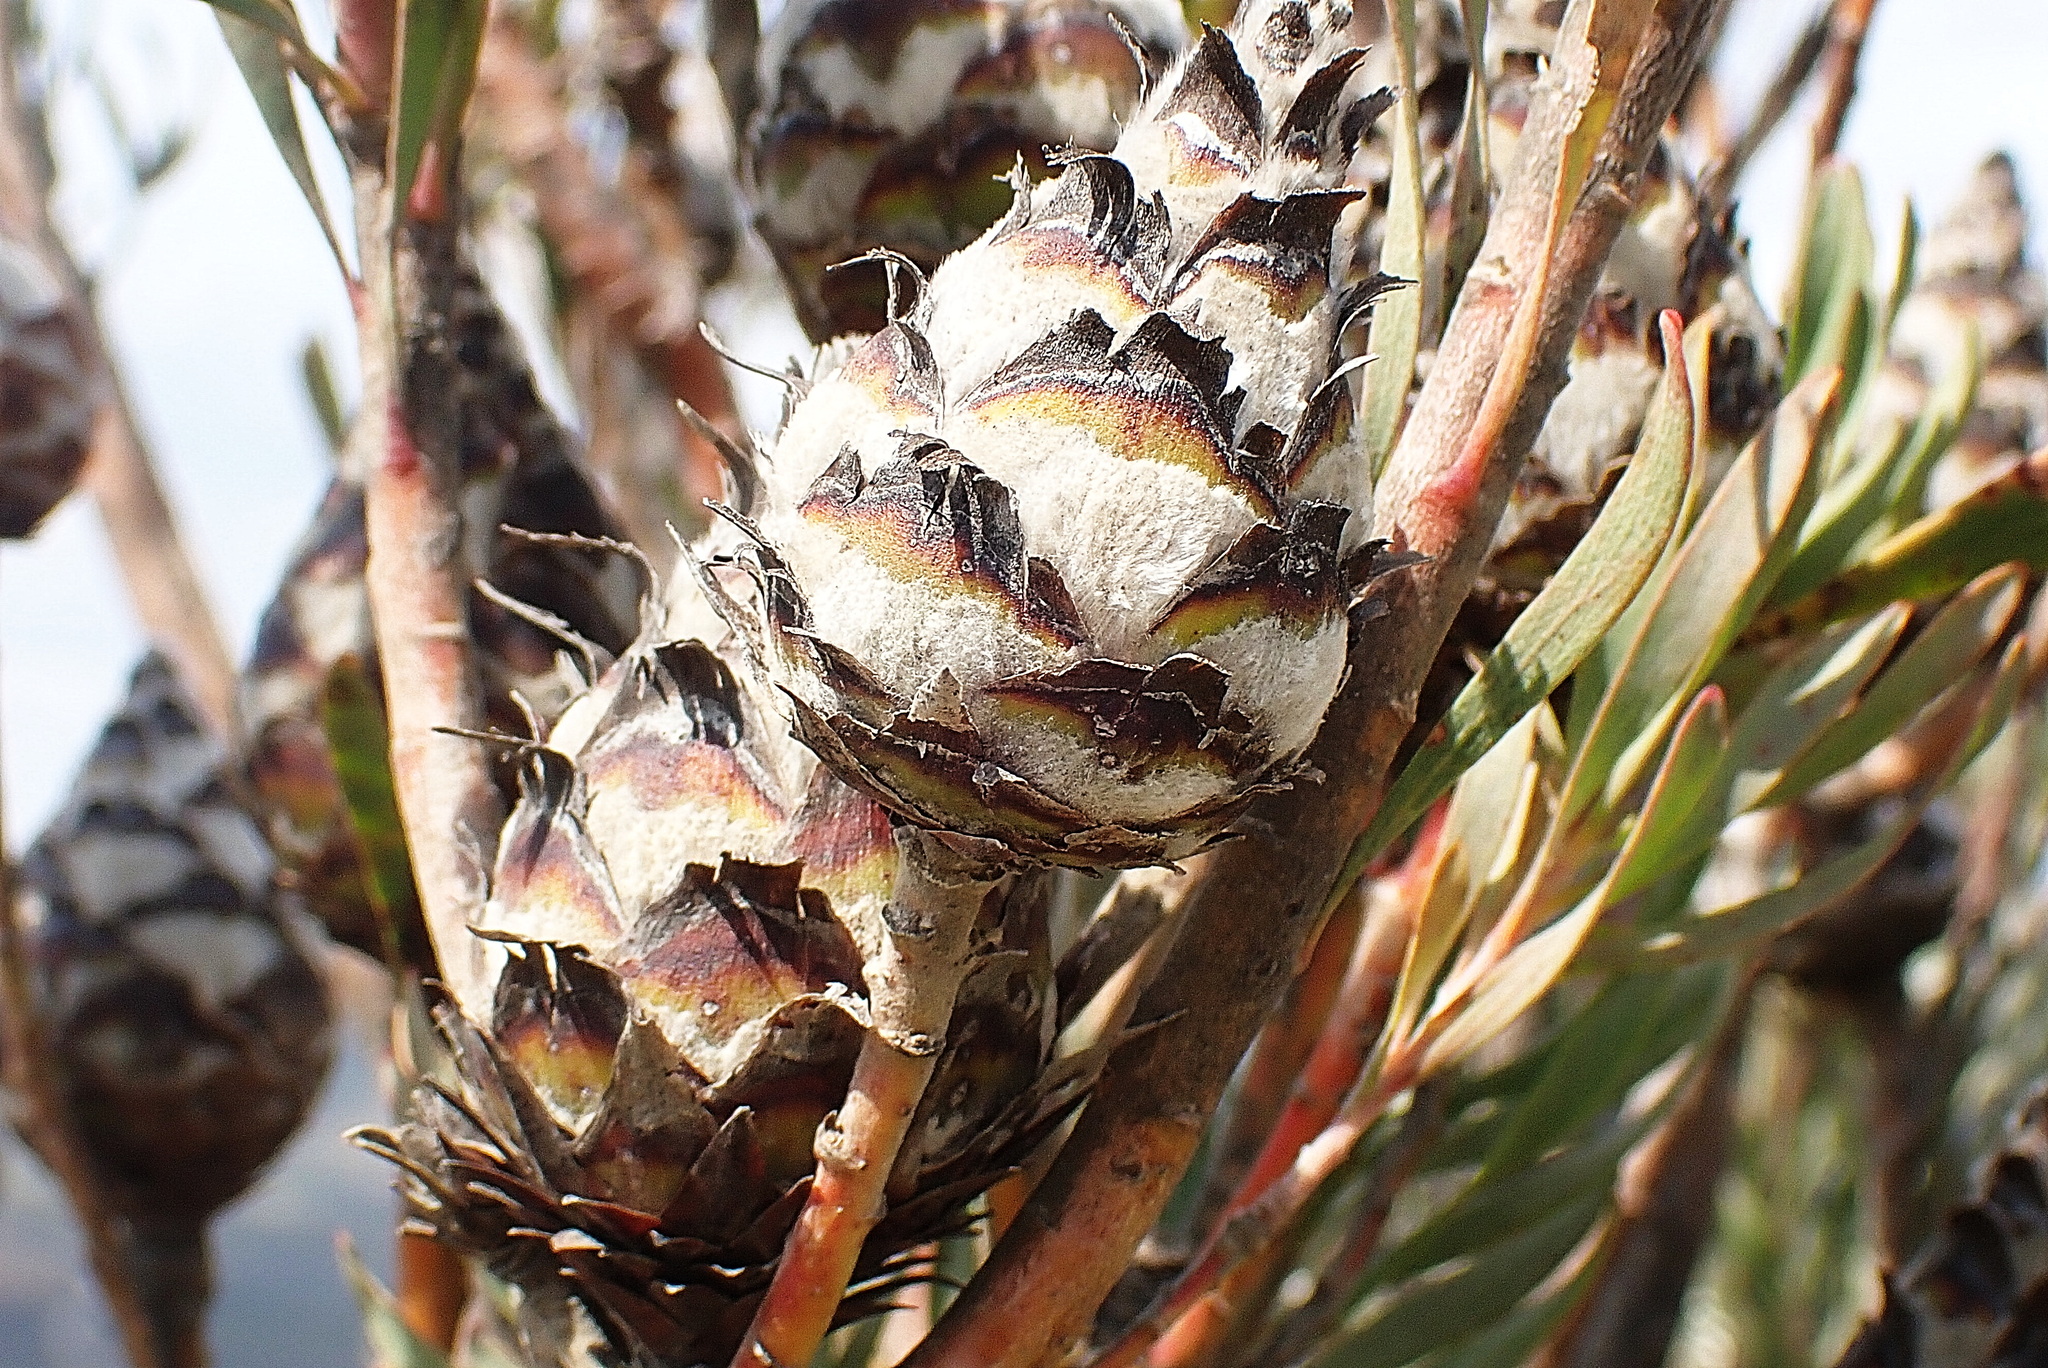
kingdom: Plantae
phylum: Tracheophyta
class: Magnoliopsida
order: Proteales
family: Proteaceae
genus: Leucadendron
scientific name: Leucadendron rubrum
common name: Spinning top
